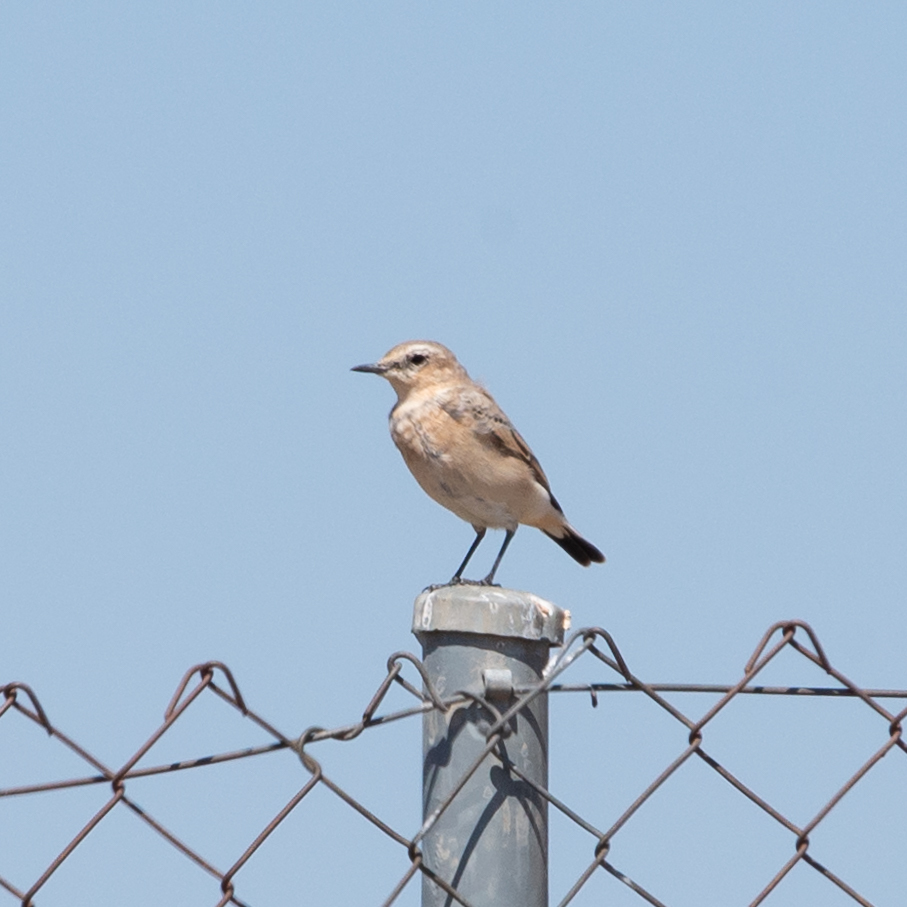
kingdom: Animalia
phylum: Chordata
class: Aves
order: Passeriformes
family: Muscicapidae
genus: Oenanthe
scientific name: Oenanthe oenanthe
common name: Northern wheatear
